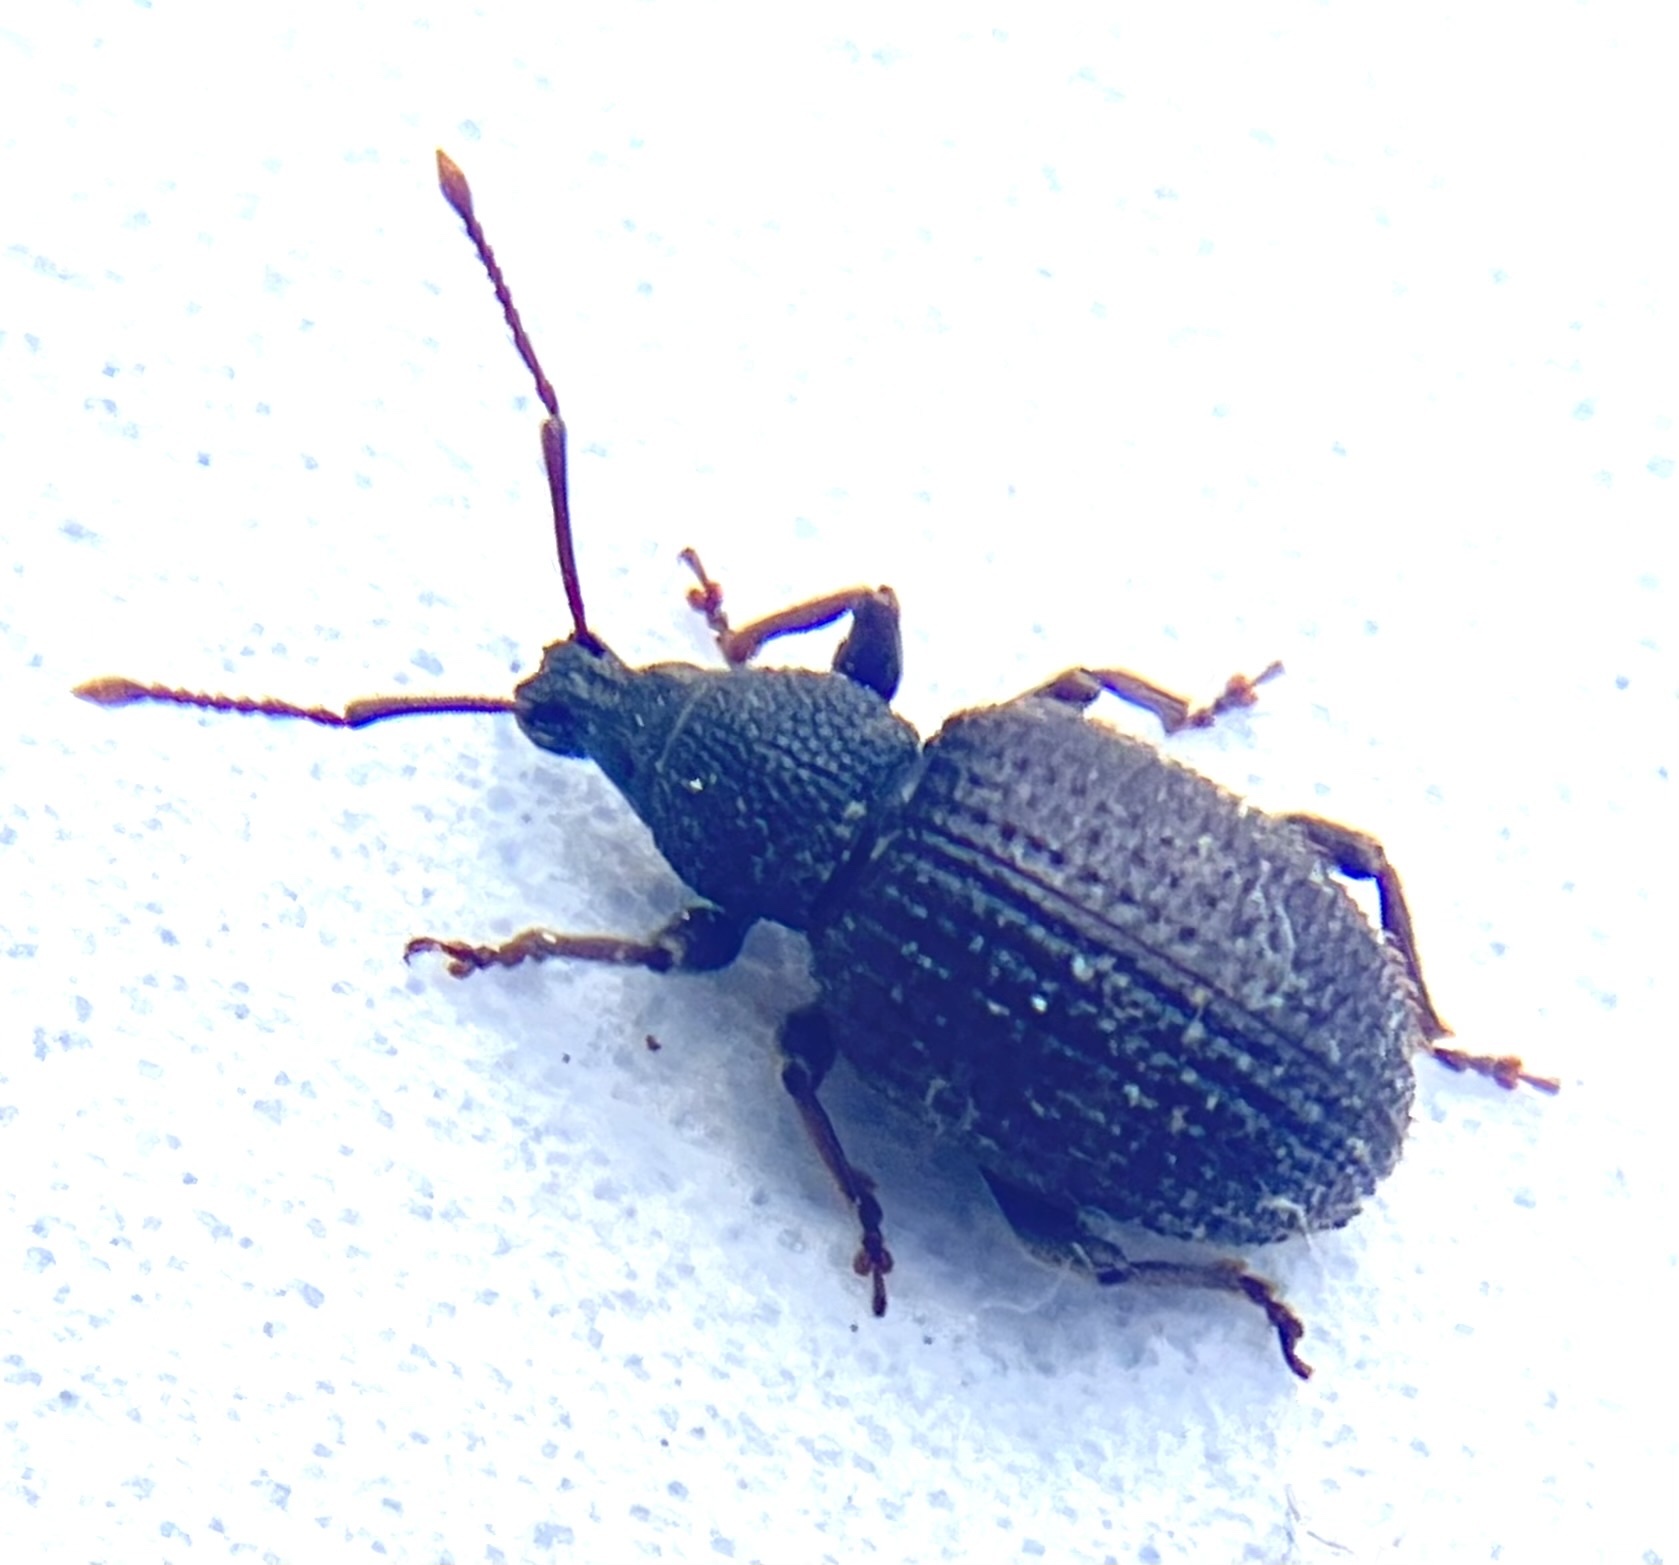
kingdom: Animalia
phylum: Arthropoda
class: Insecta
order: Coleoptera
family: Curculionidae
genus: Otiorhynchus
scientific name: Otiorhynchus rugosostriatus
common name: Weevil
